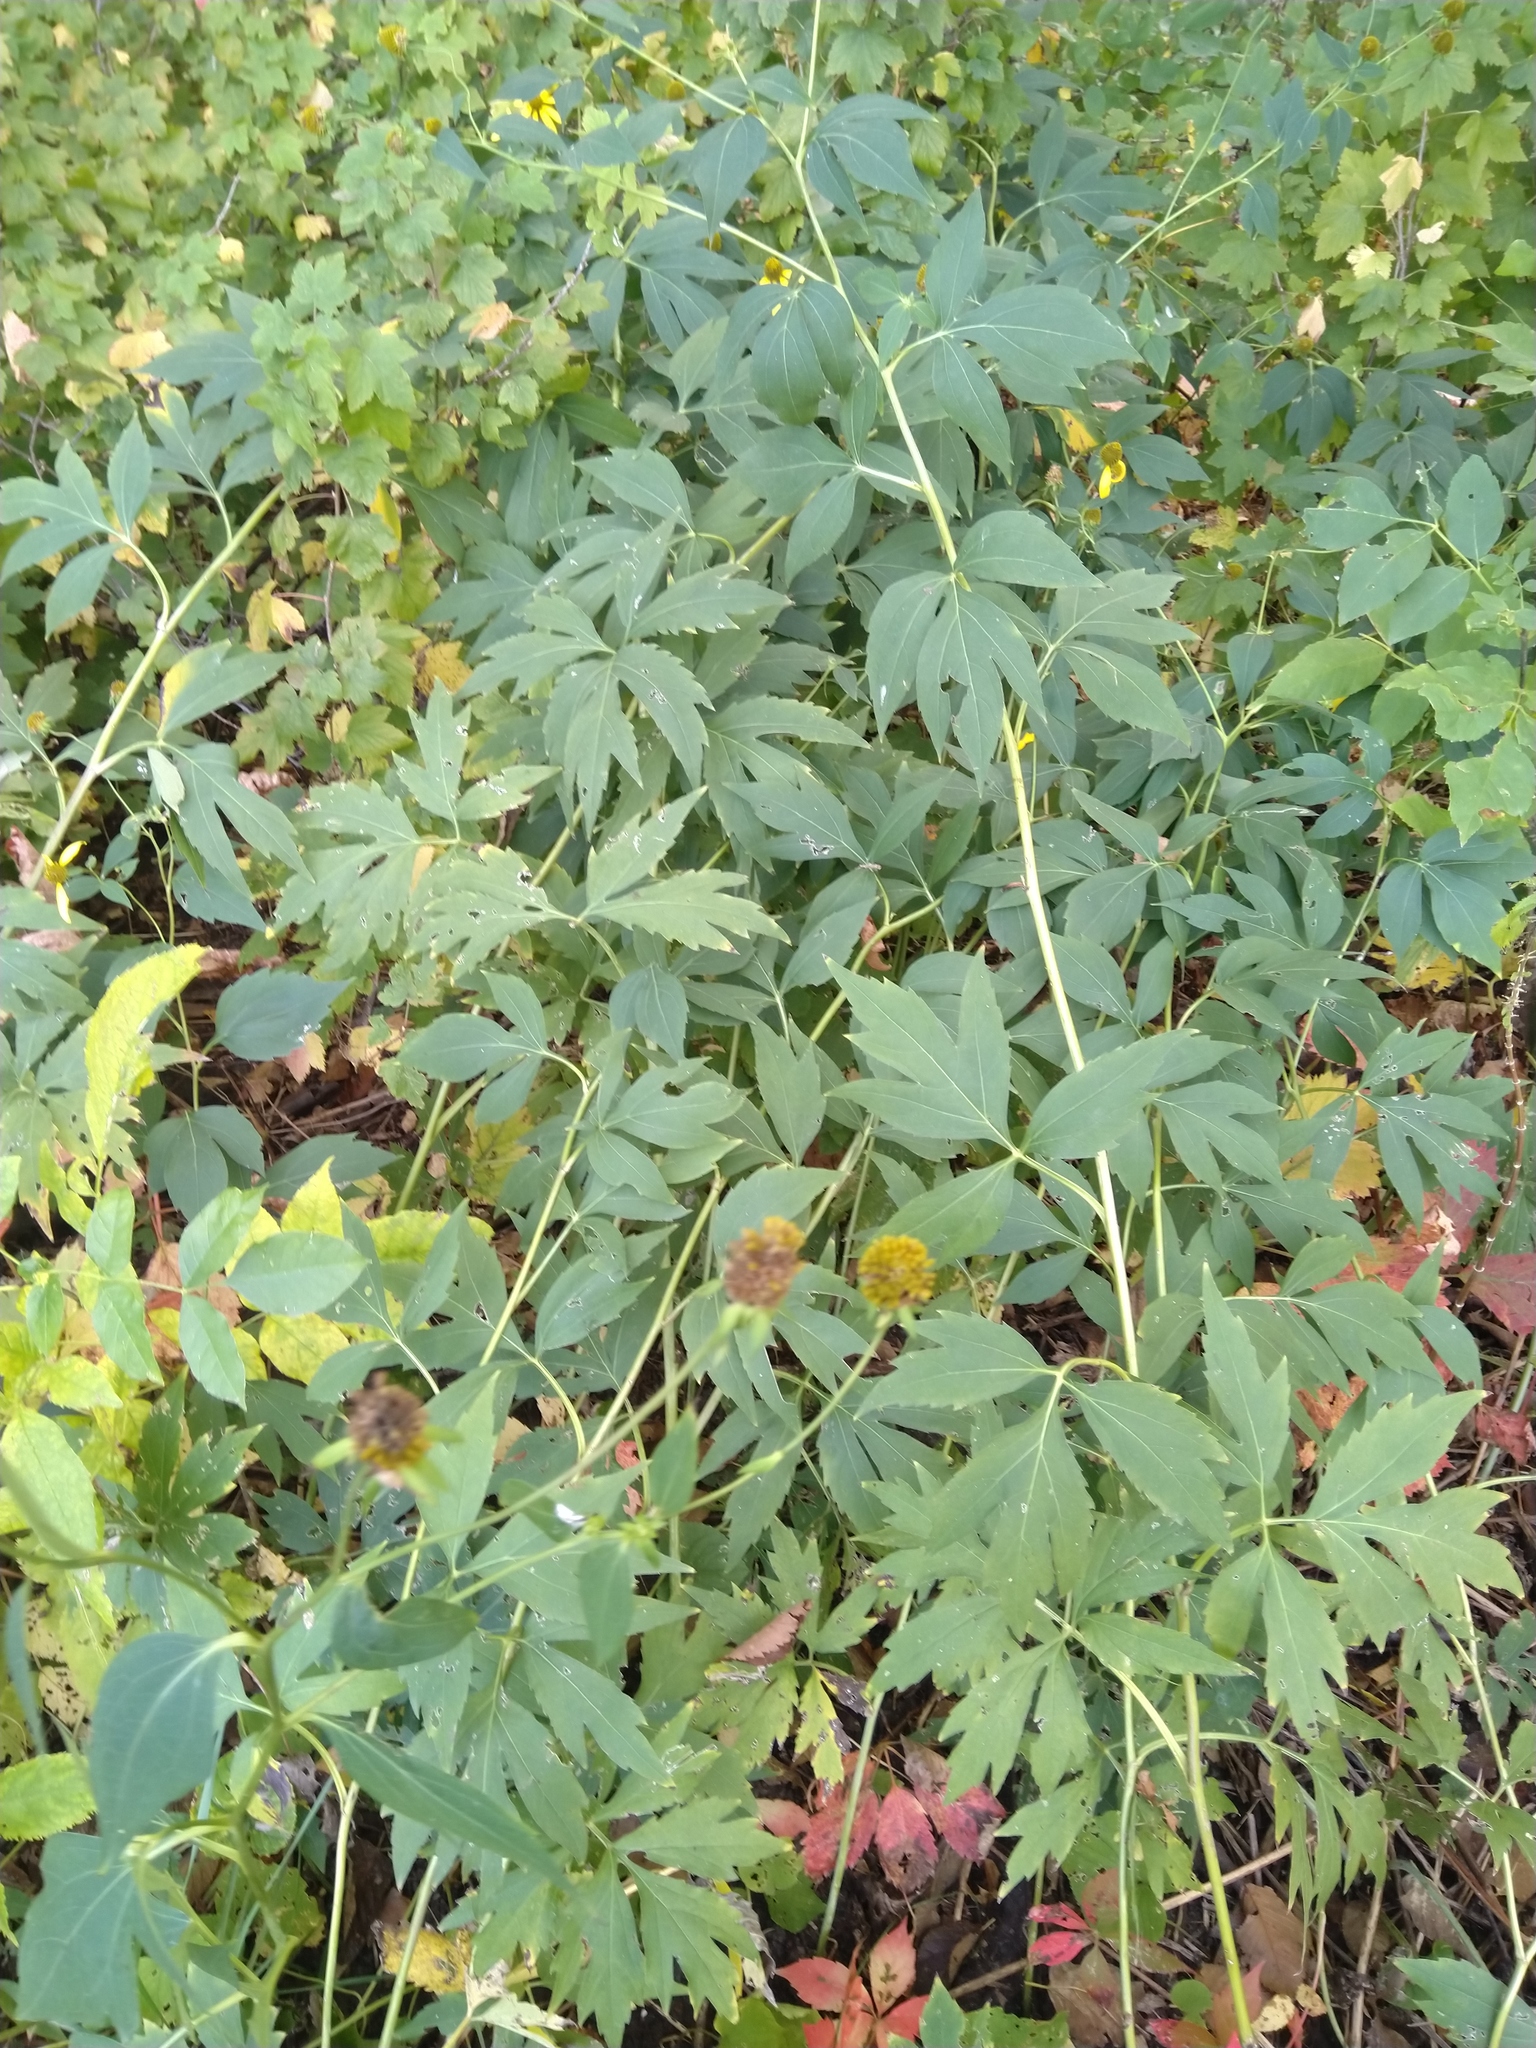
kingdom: Plantae
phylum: Tracheophyta
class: Magnoliopsida
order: Asterales
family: Asteraceae
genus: Rudbeckia
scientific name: Rudbeckia laciniata
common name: Coneflower
